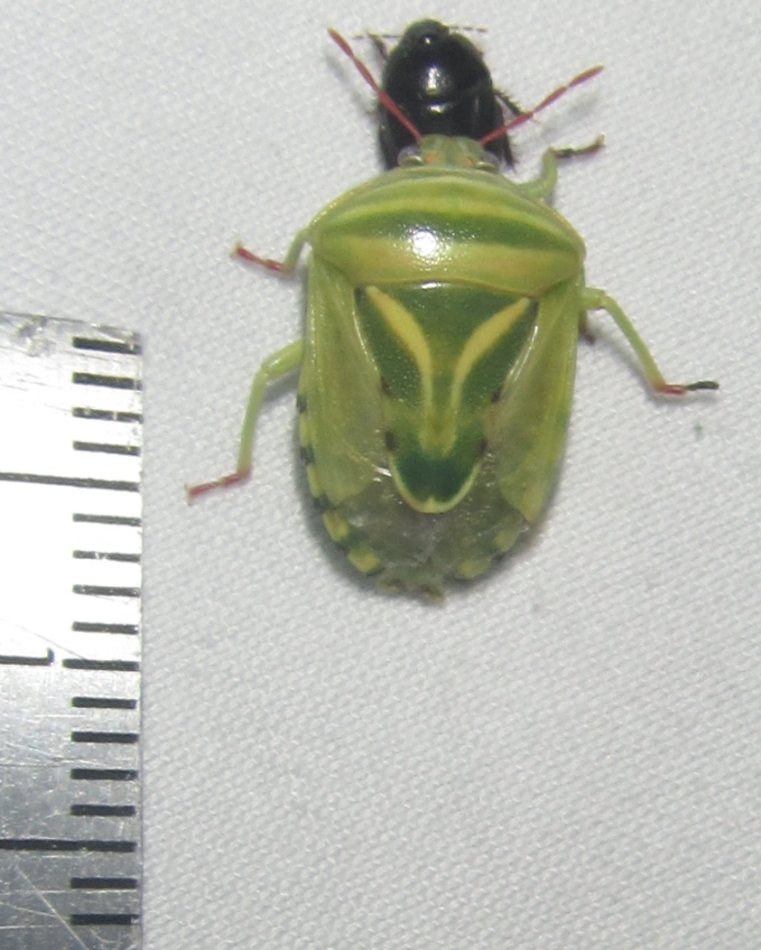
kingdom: Animalia
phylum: Arthropoda
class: Insecta
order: Hemiptera
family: Acanthosomatidae
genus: Lindbergicoris
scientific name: Lindbergicoris Platacantha lutea
